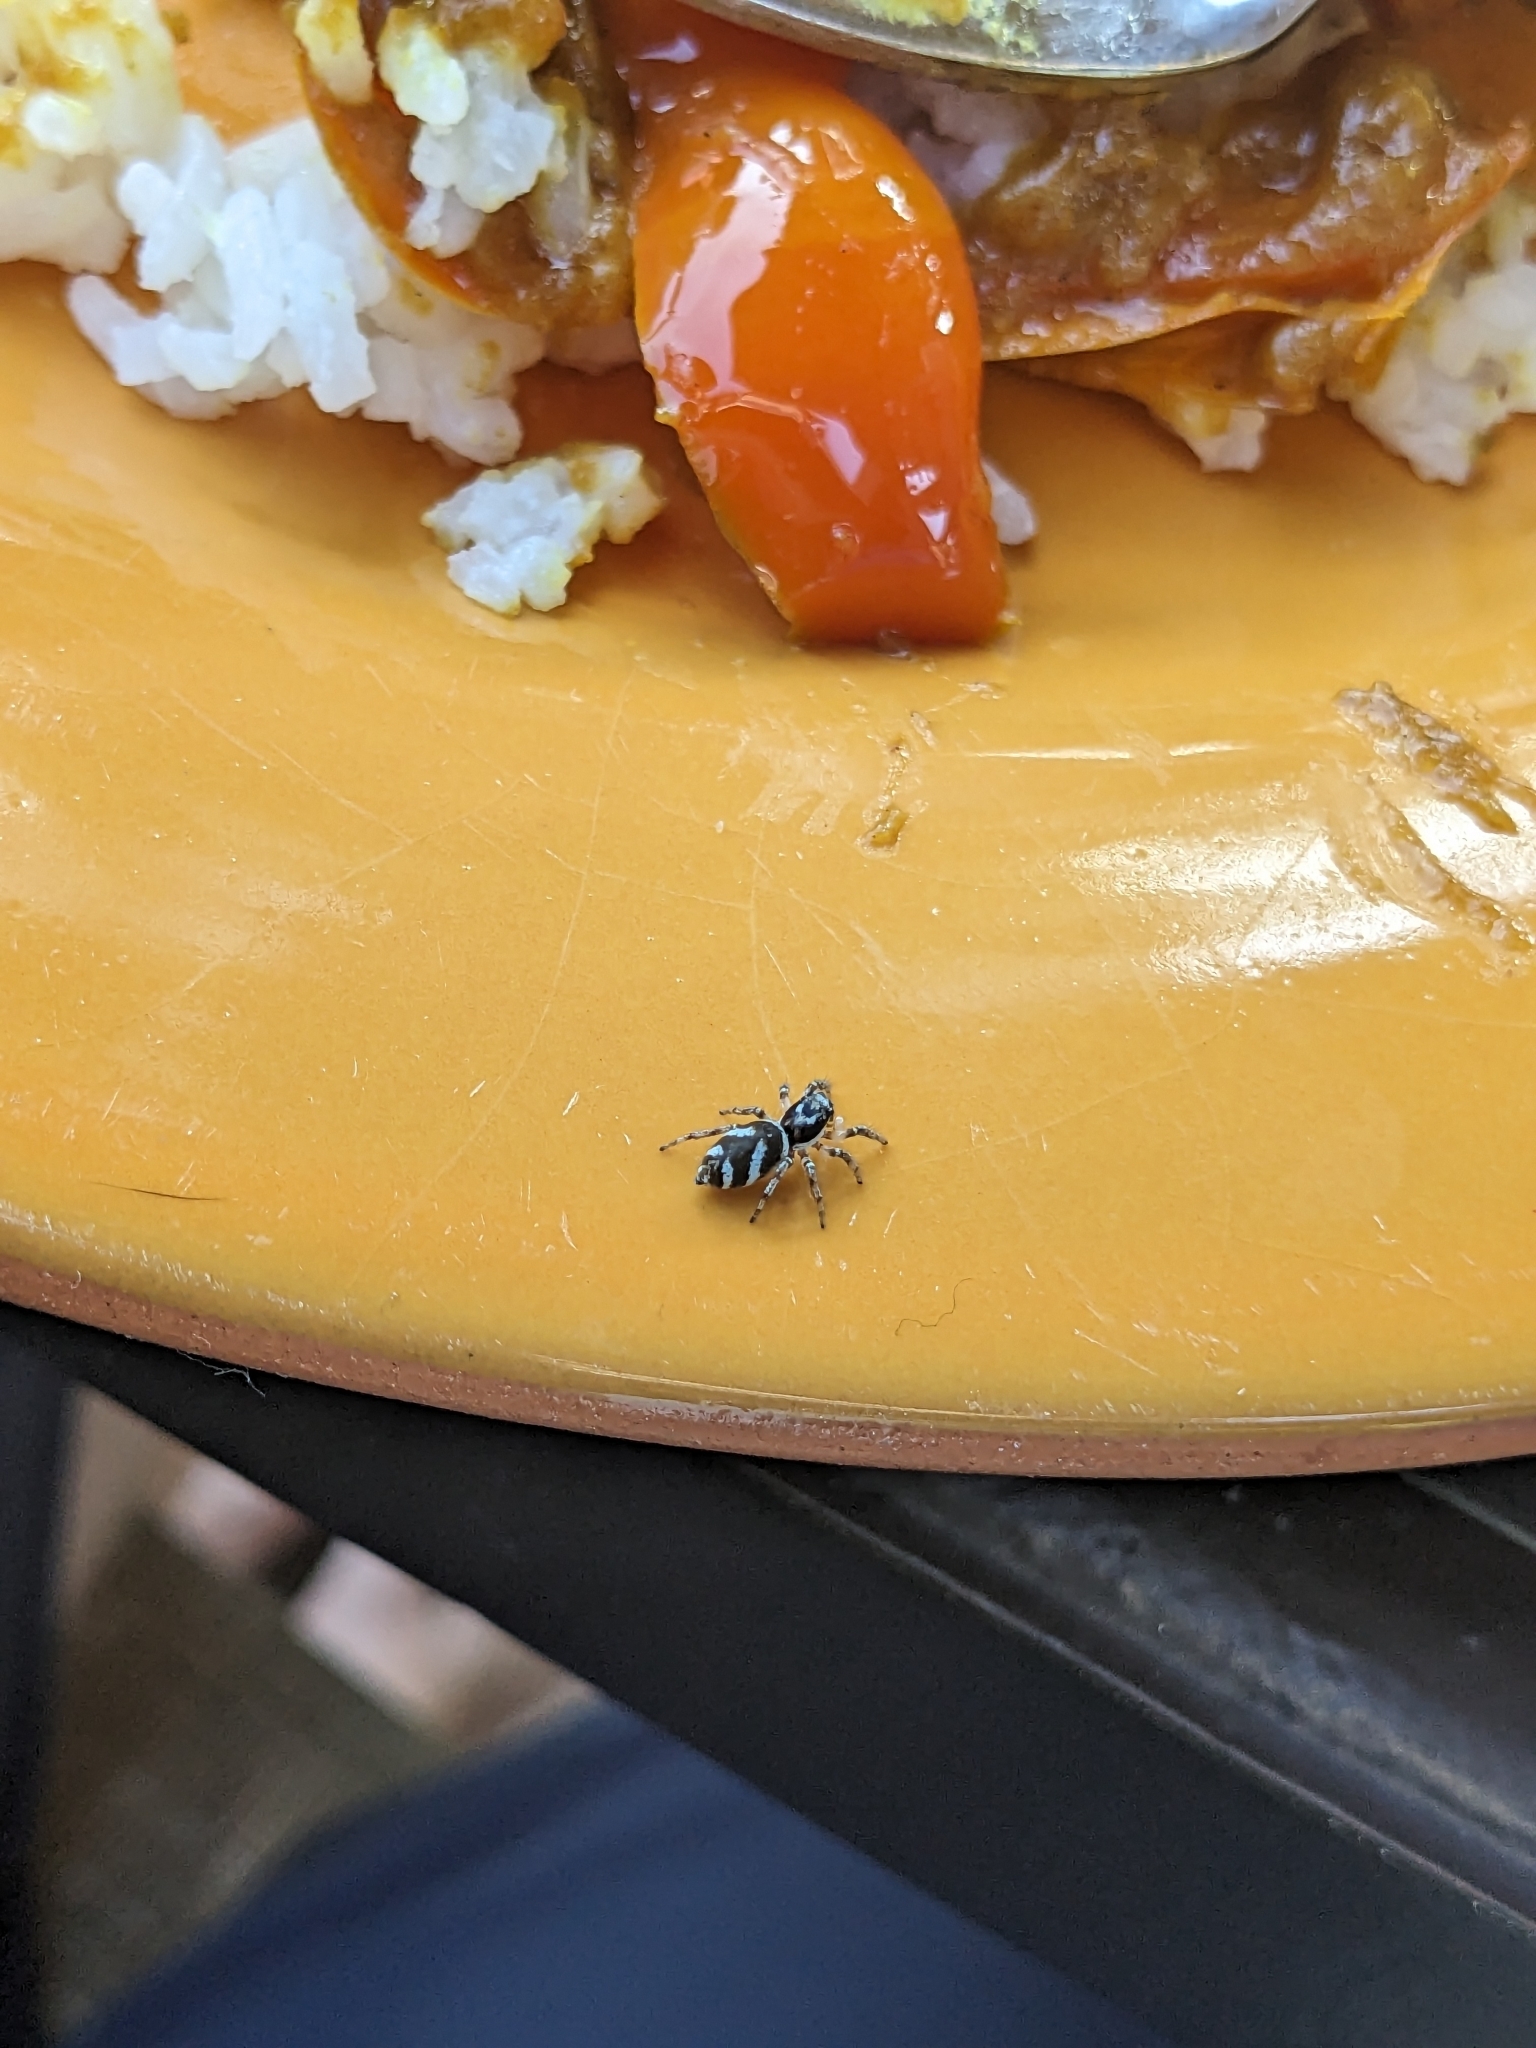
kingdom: Animalia
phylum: Arthropoda
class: Arachnida
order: Araneae
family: Salticidae
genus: Salticus
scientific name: Salticus scenicus
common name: Zebra jumper
